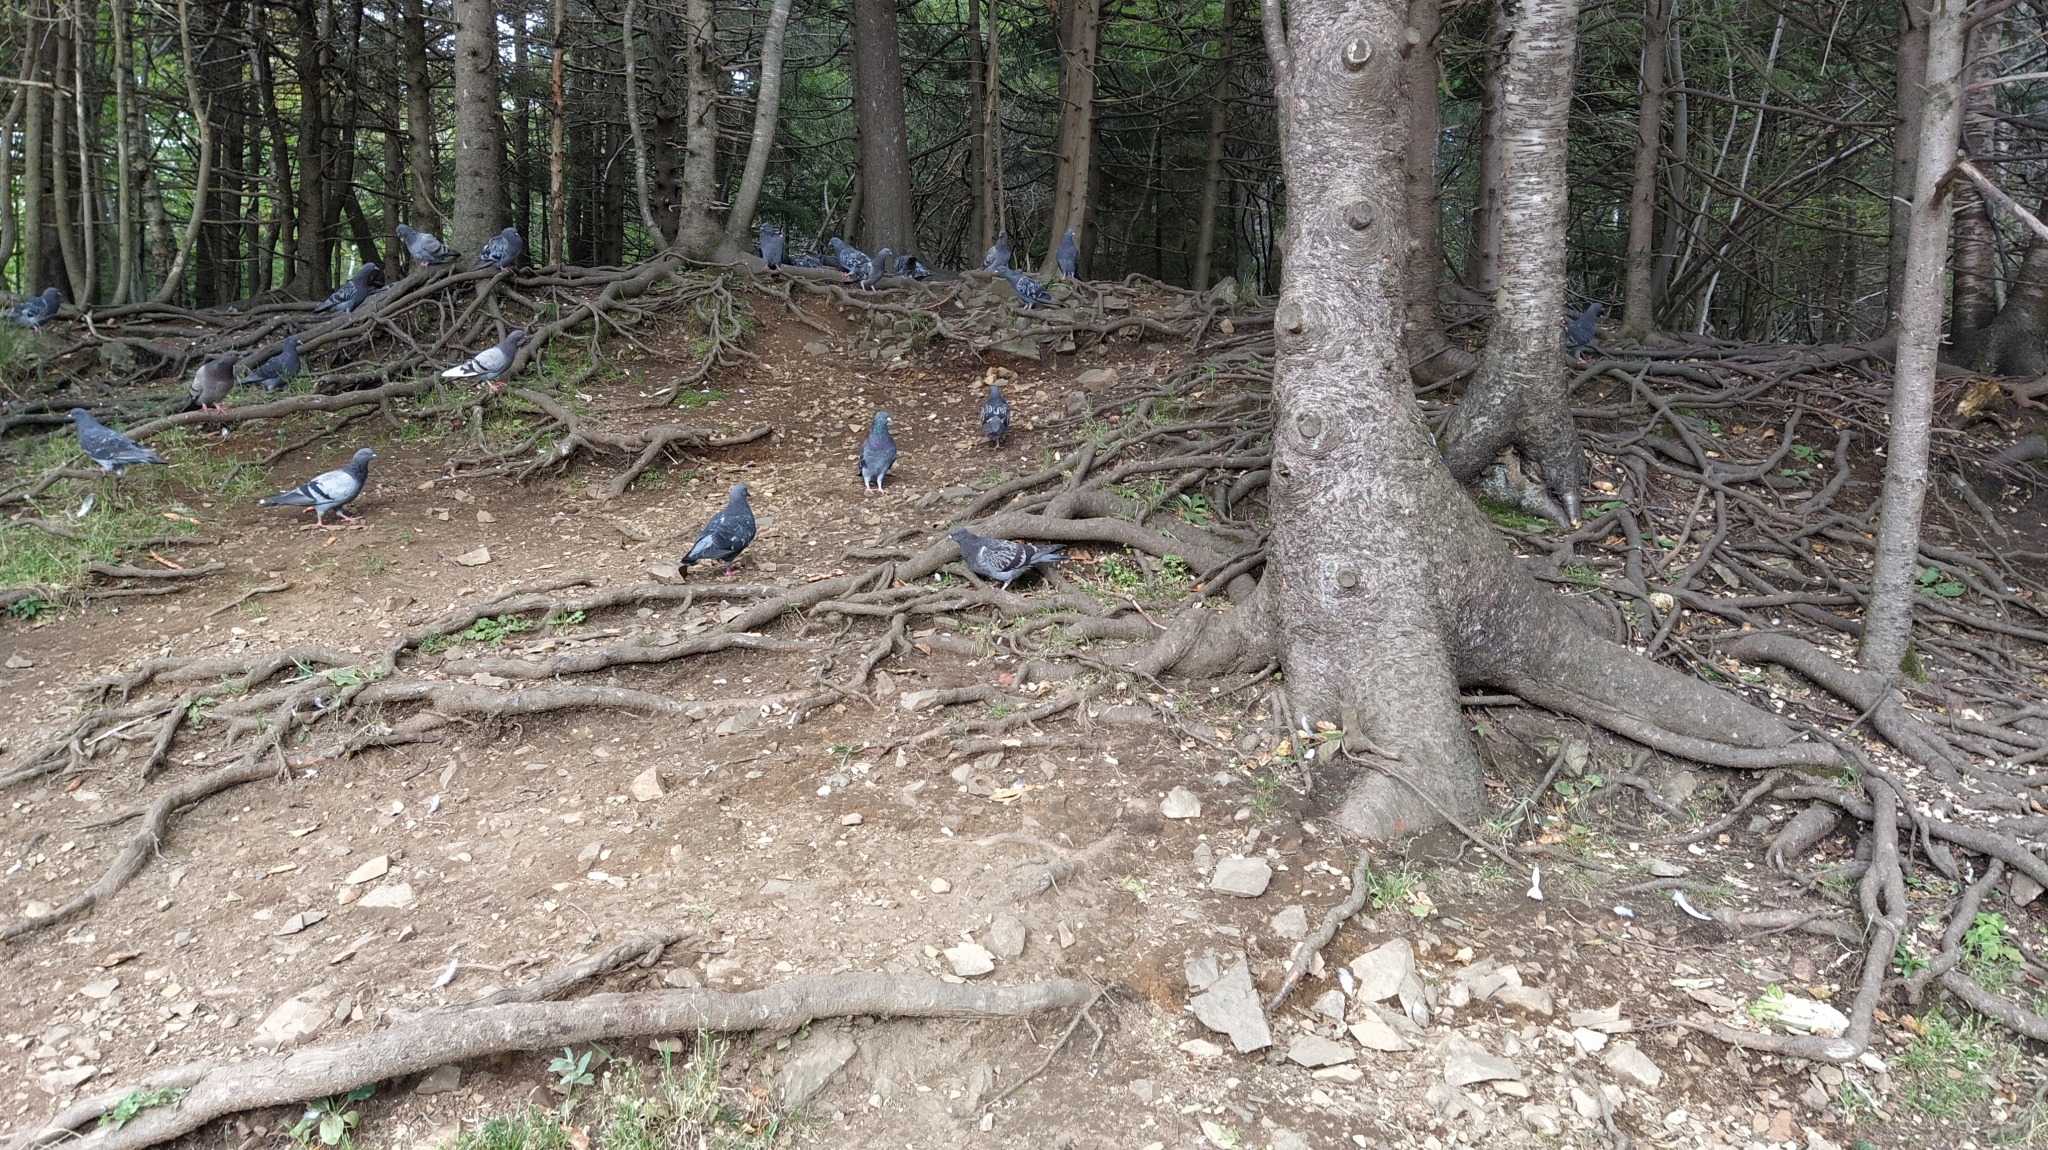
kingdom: Animalia
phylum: Chordata
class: Aves
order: Columbiformes
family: Columbidae
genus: Columba
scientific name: Columba livia
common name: Rock pigeon
